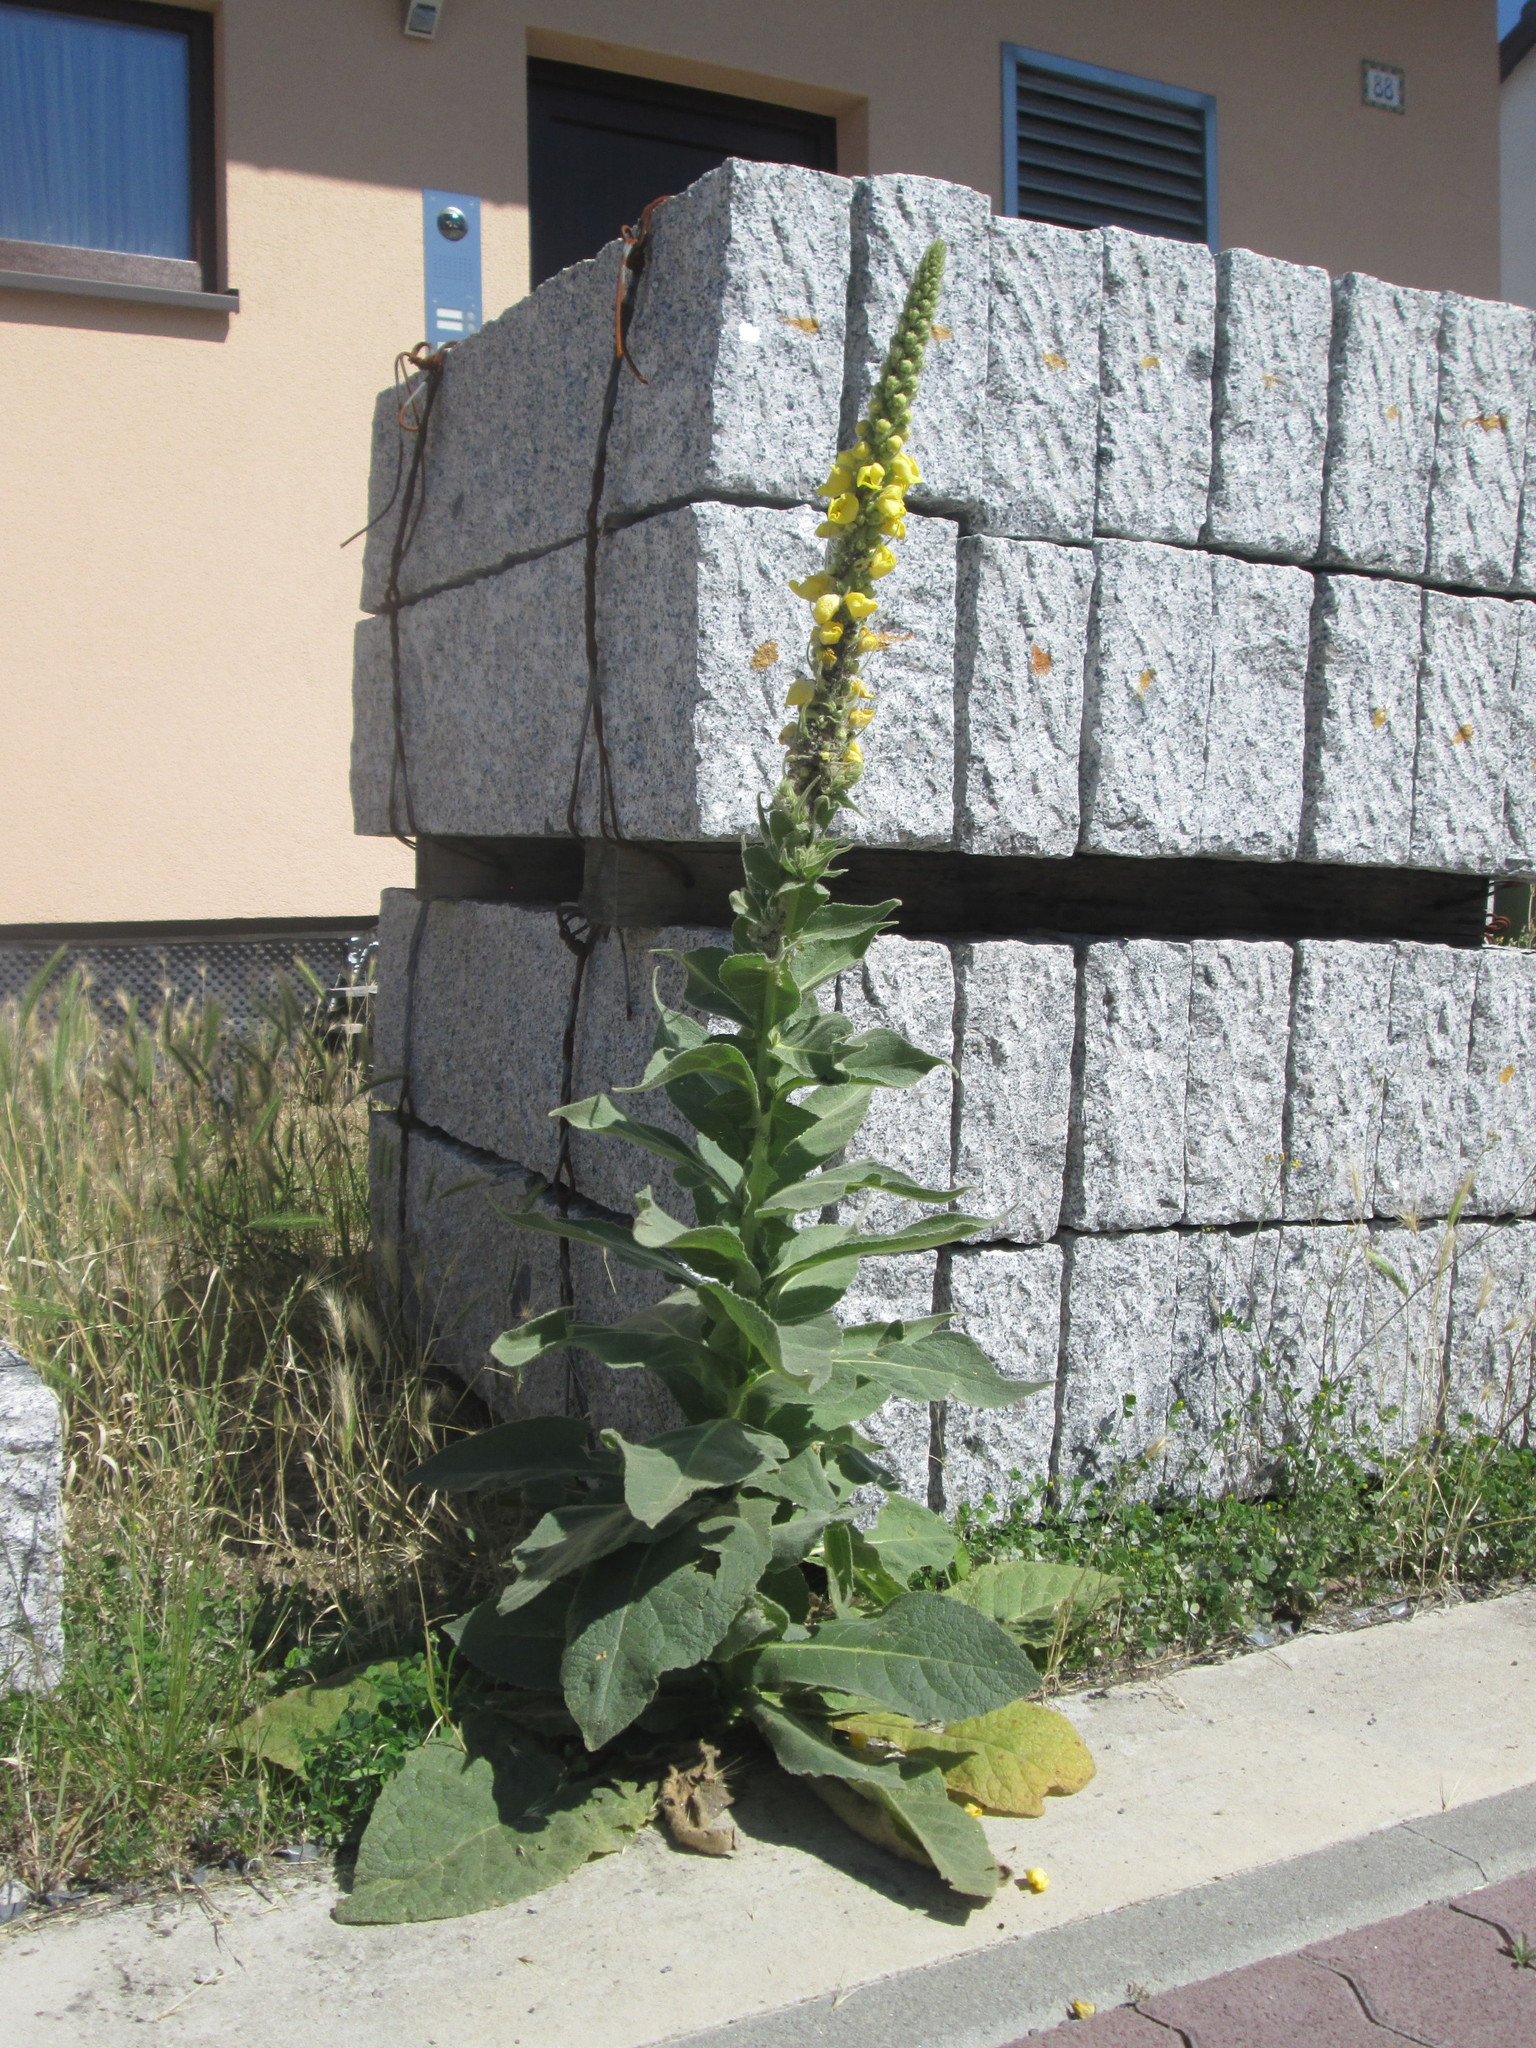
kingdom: Plantae
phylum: Tracheophyta
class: Magnoliopsida
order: Lamiales
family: Scrophulariaceae
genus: Verbascum
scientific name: Verbascum thapsus
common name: Common mullein
